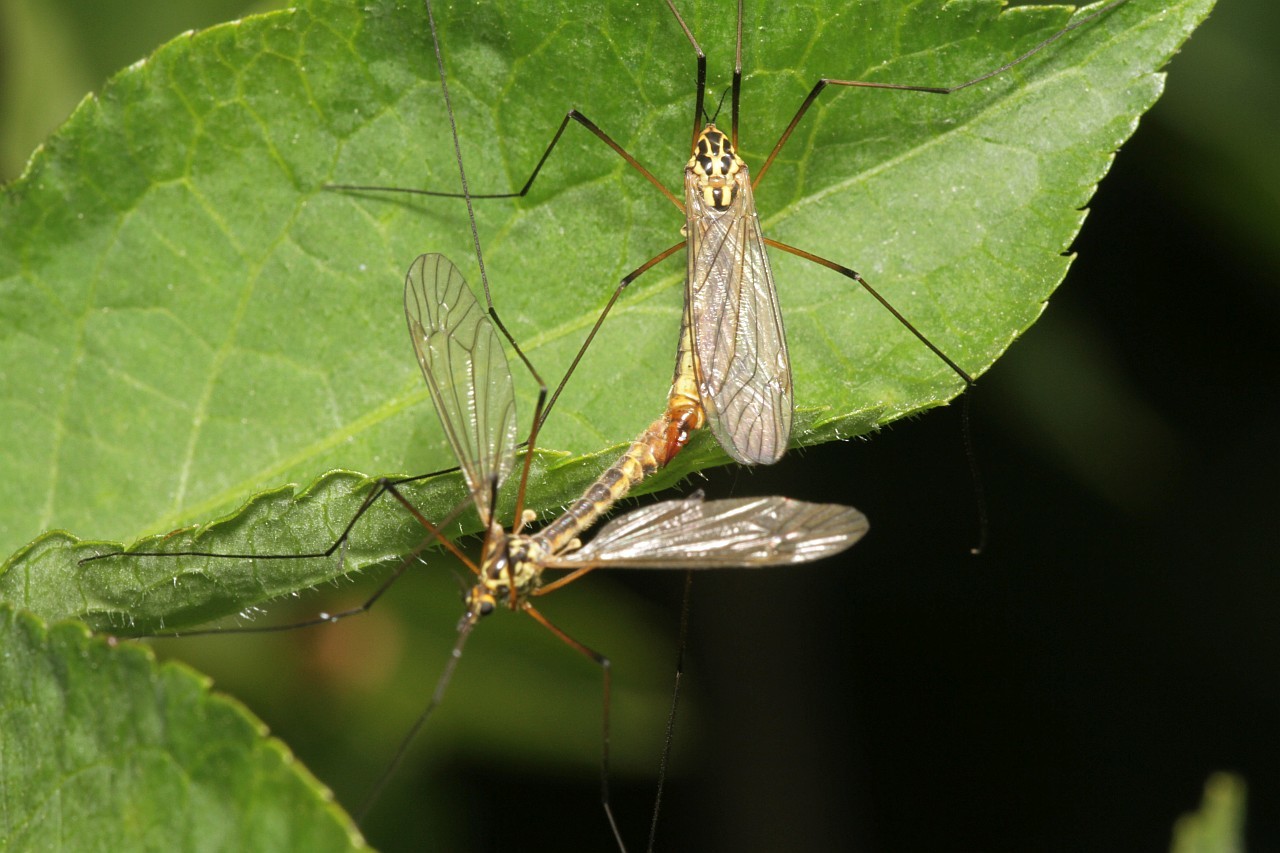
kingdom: Animalia
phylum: Arthropoda
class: Insecta
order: Diptera
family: Tipulidae
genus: Nephrotoma
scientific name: Nephrotoma appendiculata
